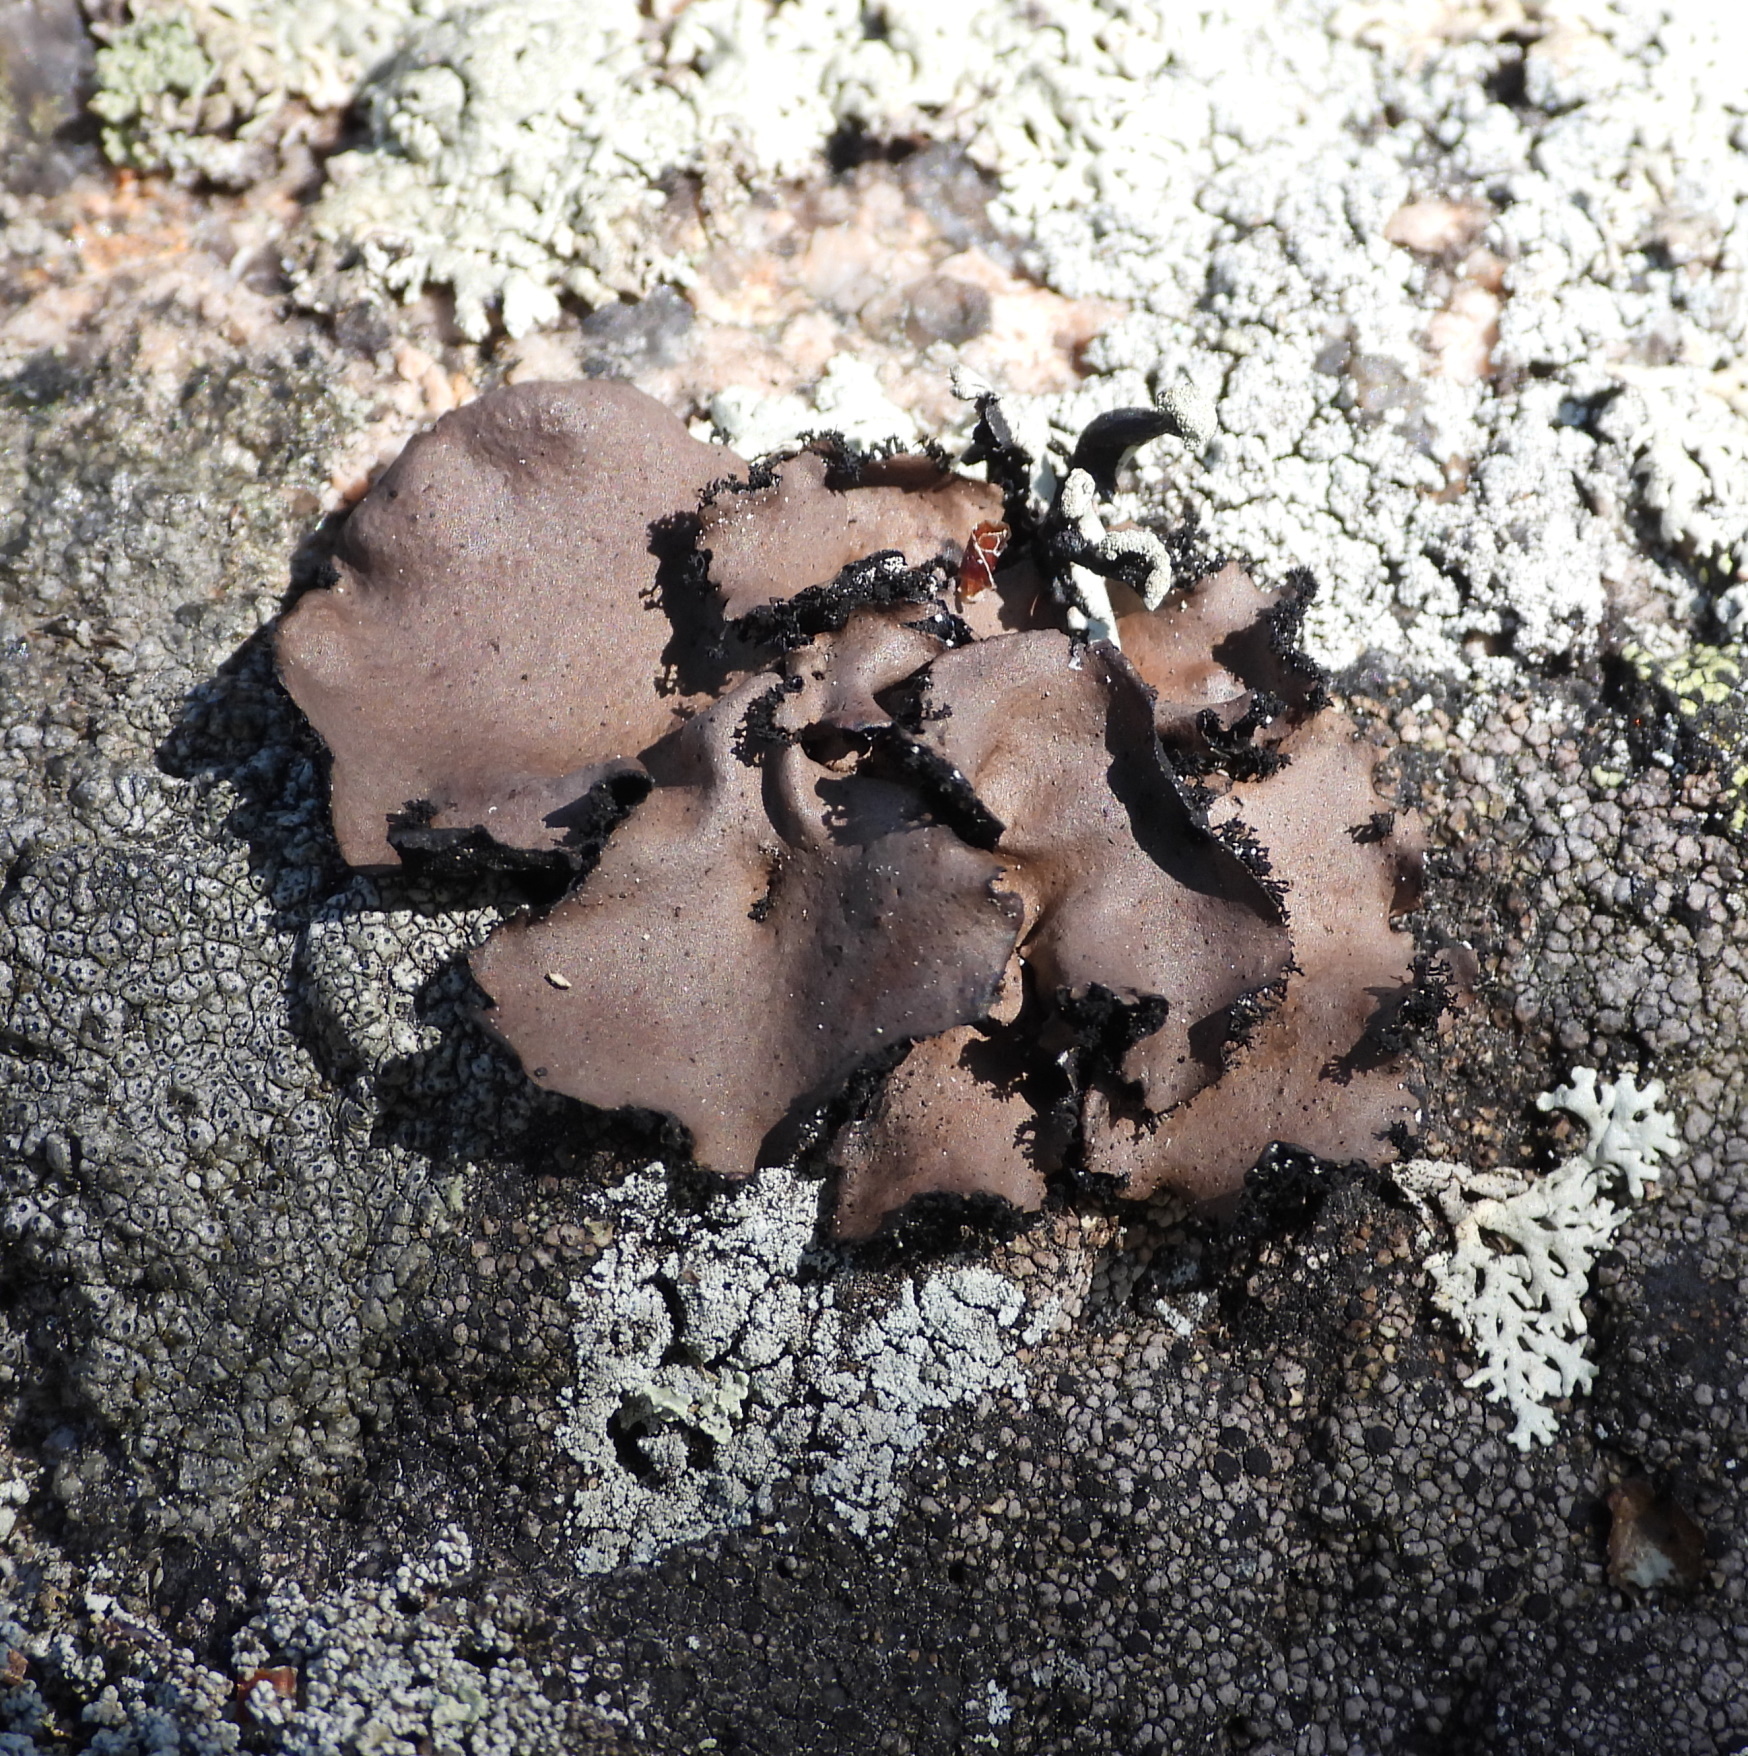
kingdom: Fungi
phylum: Ascomycota
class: Lecanoromycetes
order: Umbilicariales
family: Umbilicariaceae
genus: Umbilicaria
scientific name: Umbilicaria polyrrhiza
